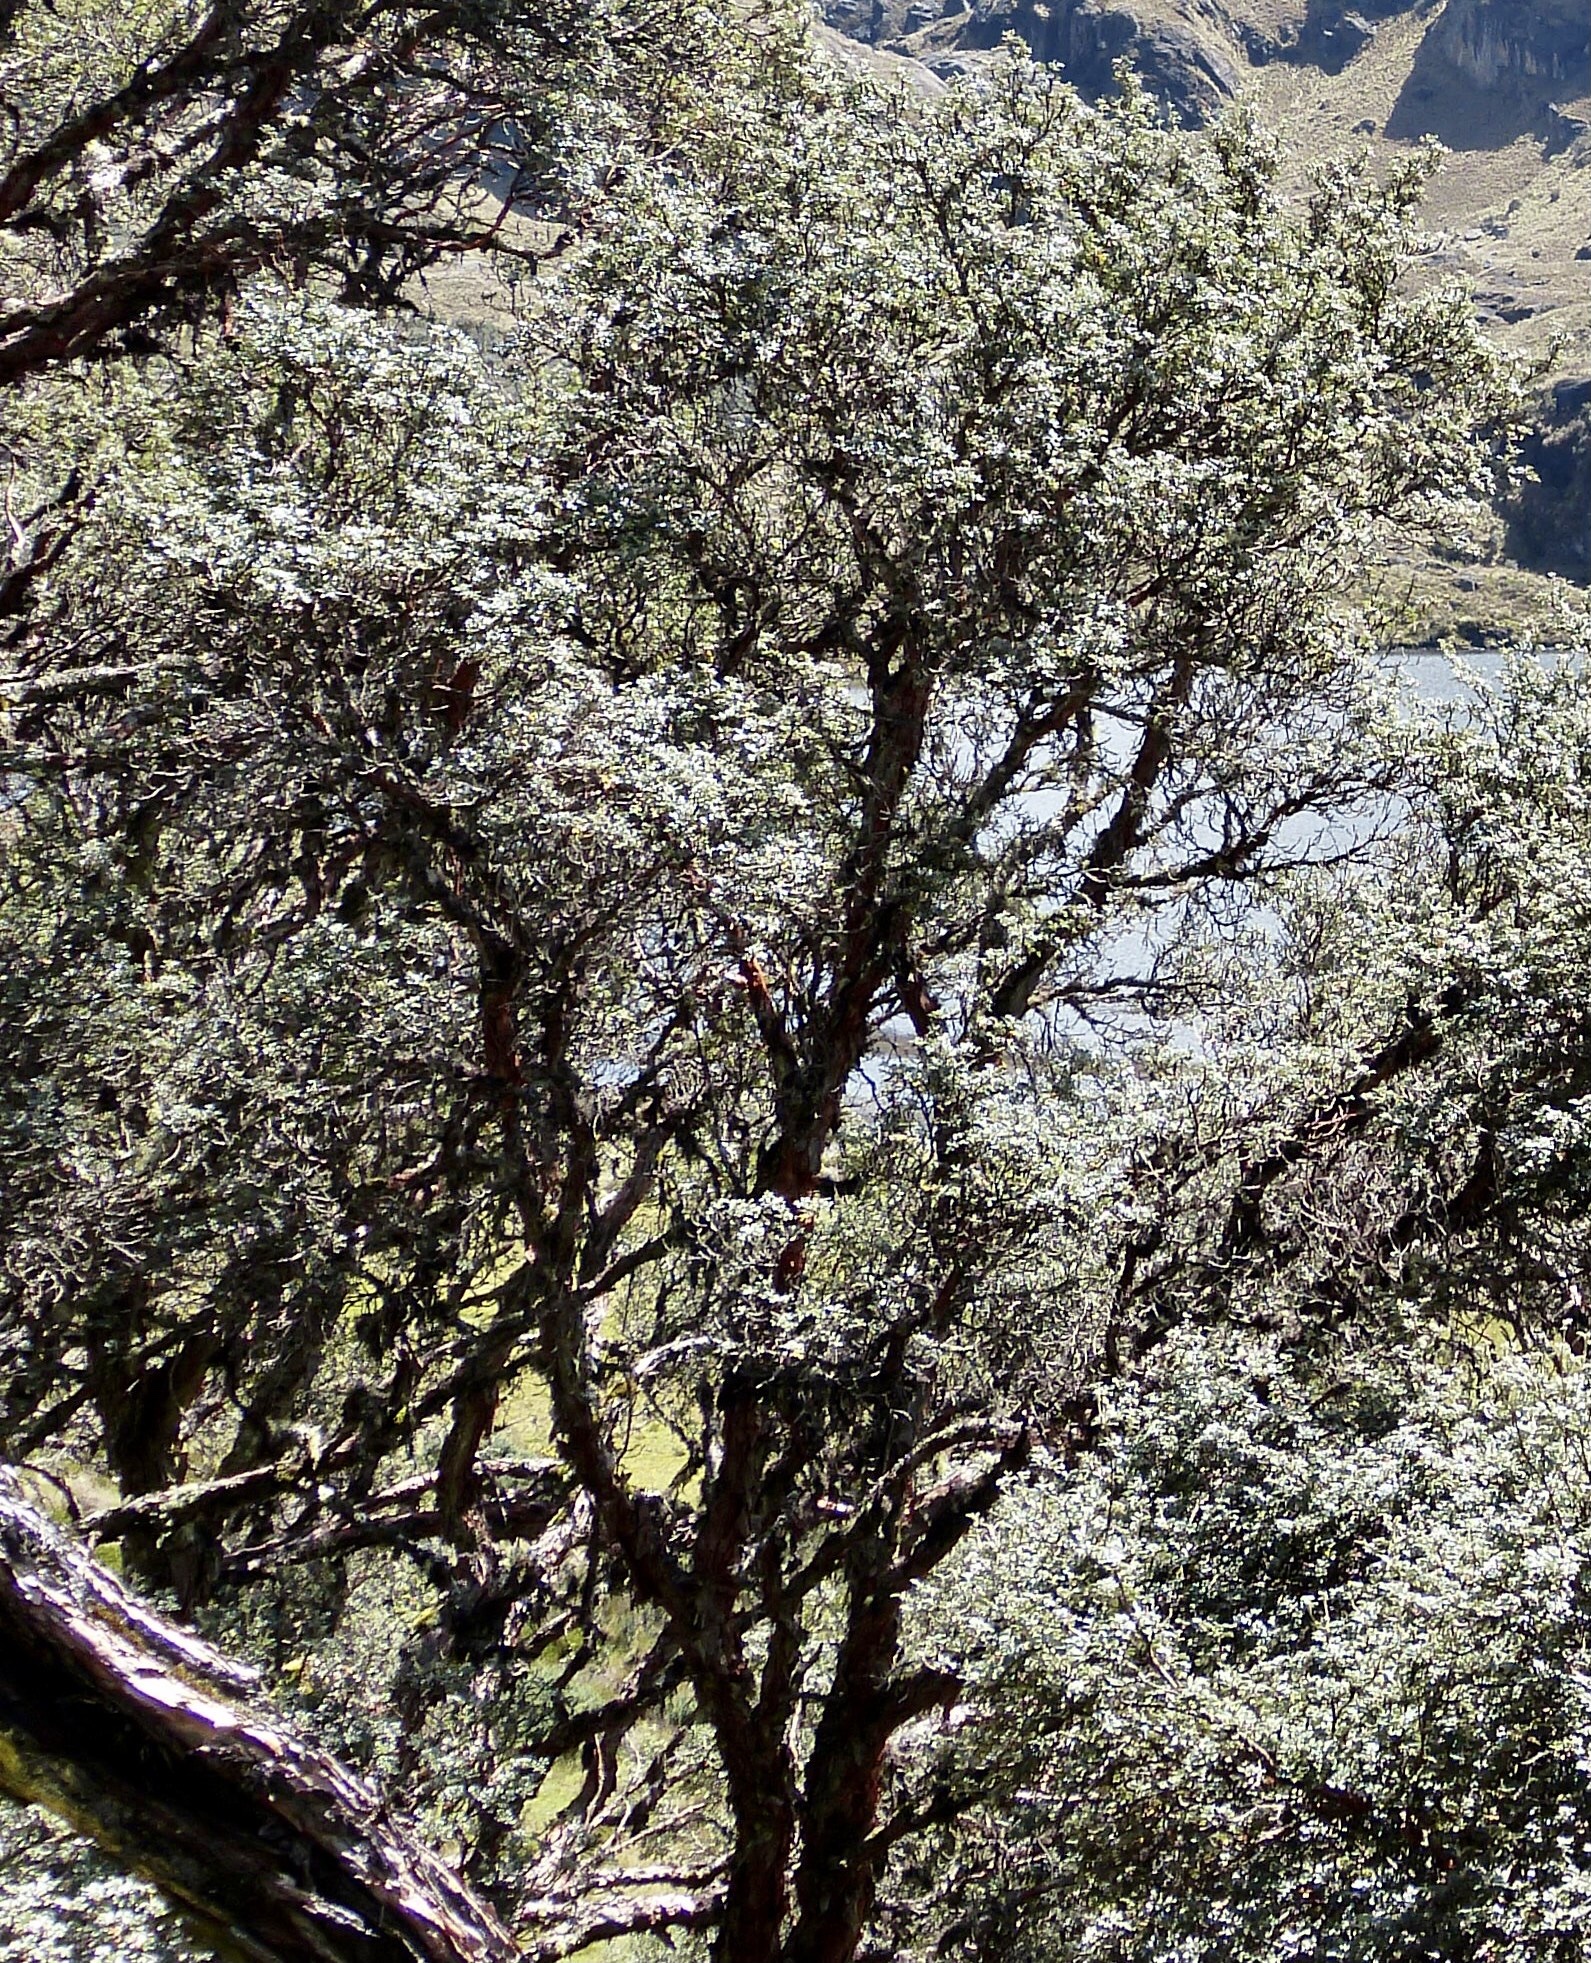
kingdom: Plantae
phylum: Tracheophyta
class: Magnoliopsida
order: Rosales
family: Rosaceae
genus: Polylepis
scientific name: Polylepis incana
